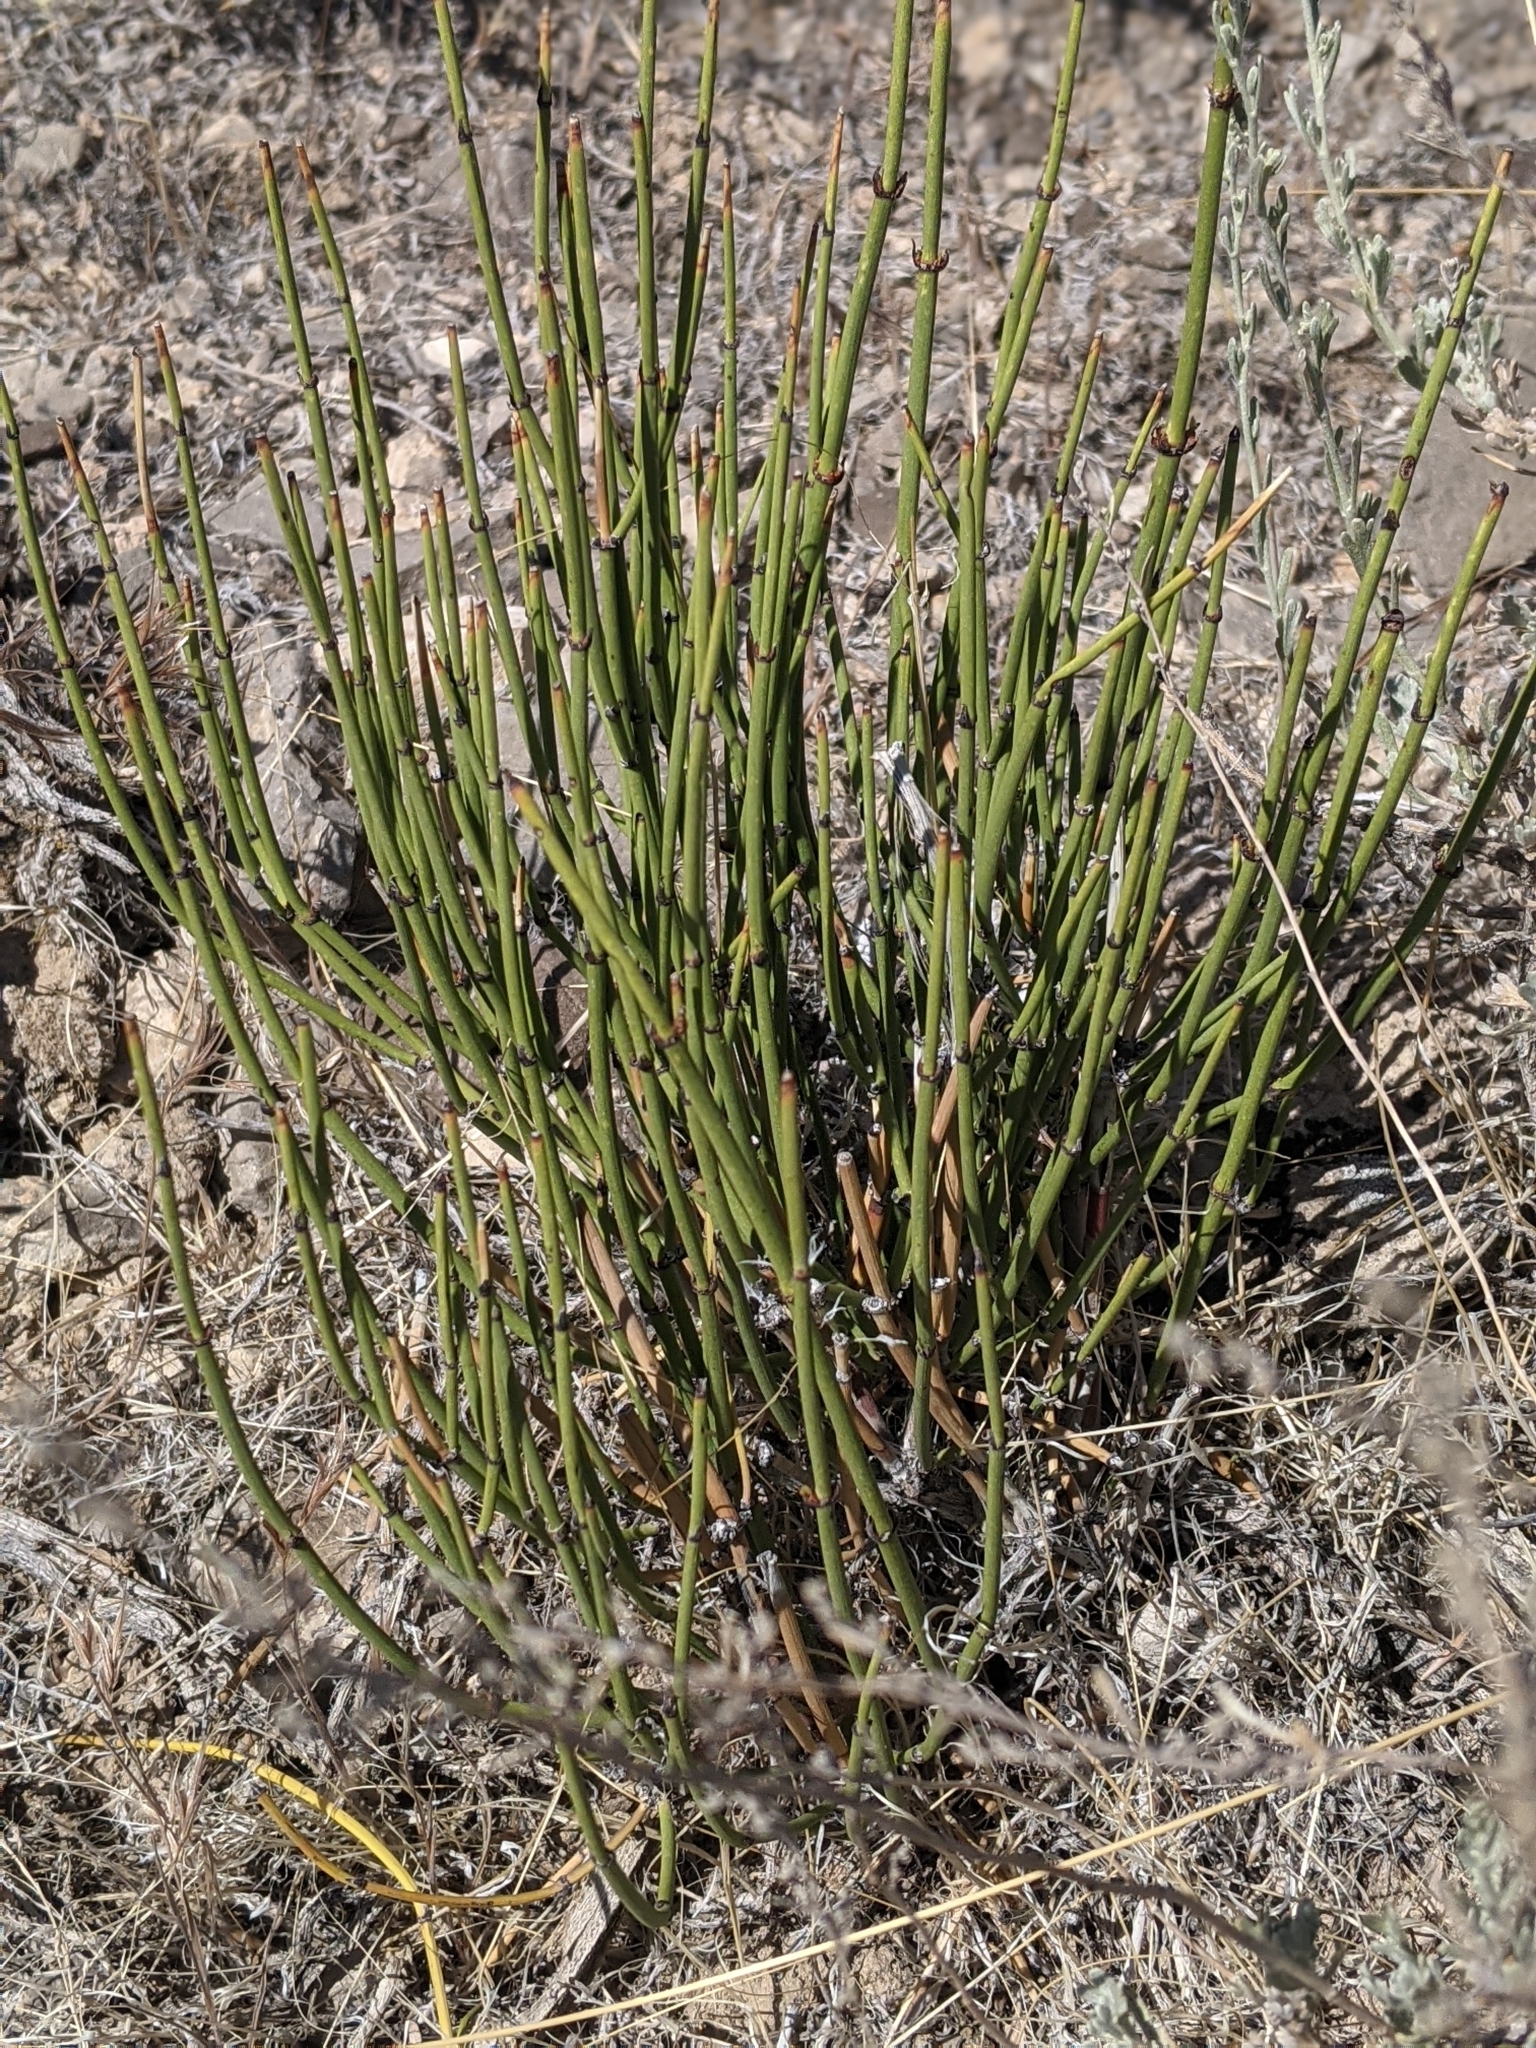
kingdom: Plantae
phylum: Tracheophyta
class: Gnetopsida
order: Ephedrales
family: Ephedraceae
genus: Ephedra
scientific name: Ephedra viridis
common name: Green ephedra
